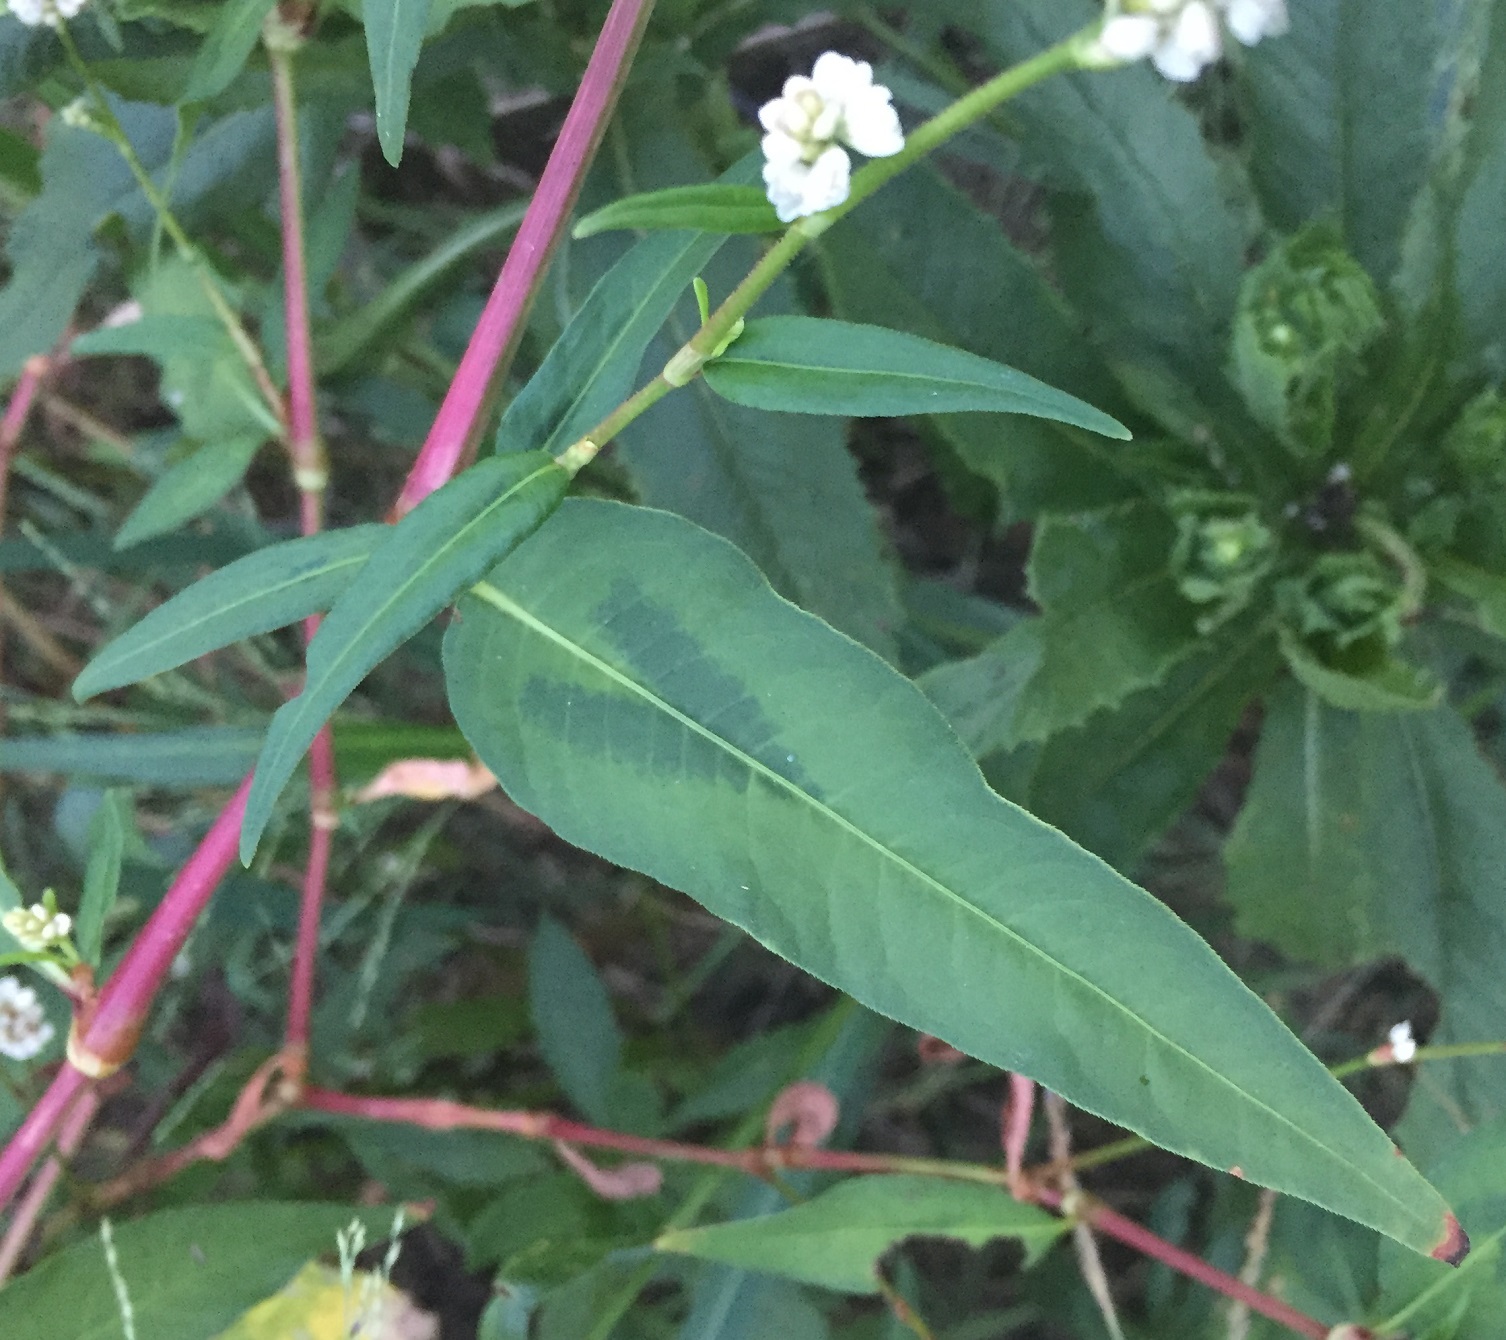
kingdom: Plantae
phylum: Tracheophyta
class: Magnoliopsida
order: Caryophyllales
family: Polygonaceae
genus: Persicaria
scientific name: Persicaria pensylvanica
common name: Pinkweed
